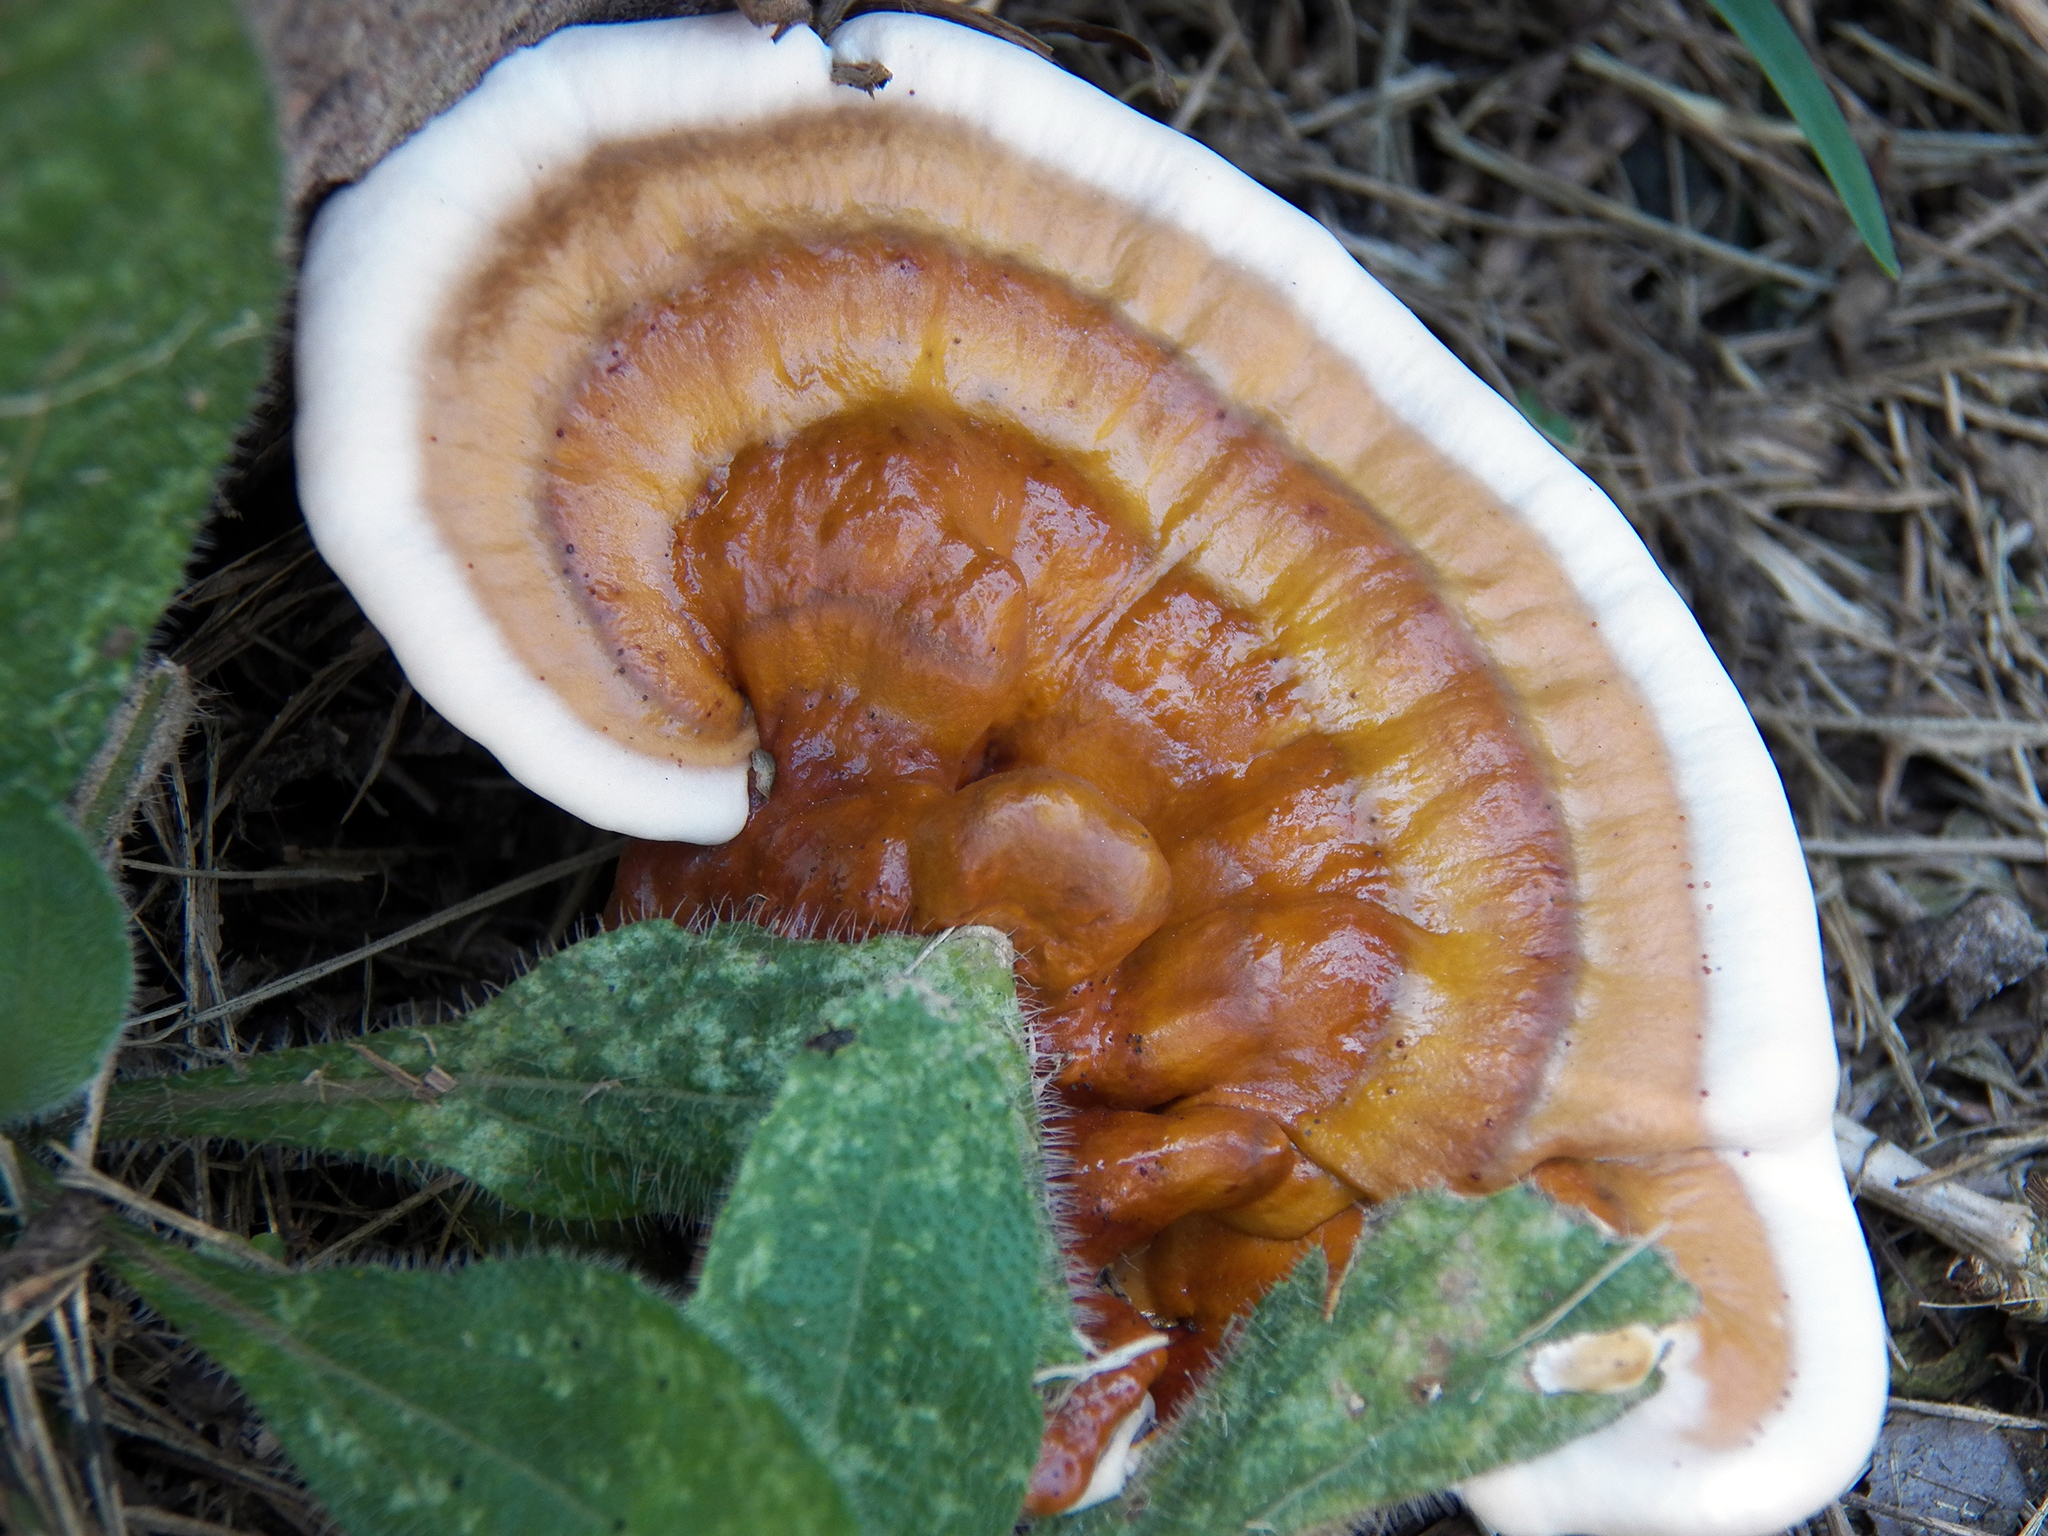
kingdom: Fungi
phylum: Basidiomycota
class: Agaricomycetes
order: Polyporales
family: Polyporaceae
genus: Ganoderma
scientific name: Ganoderma resinaceum
